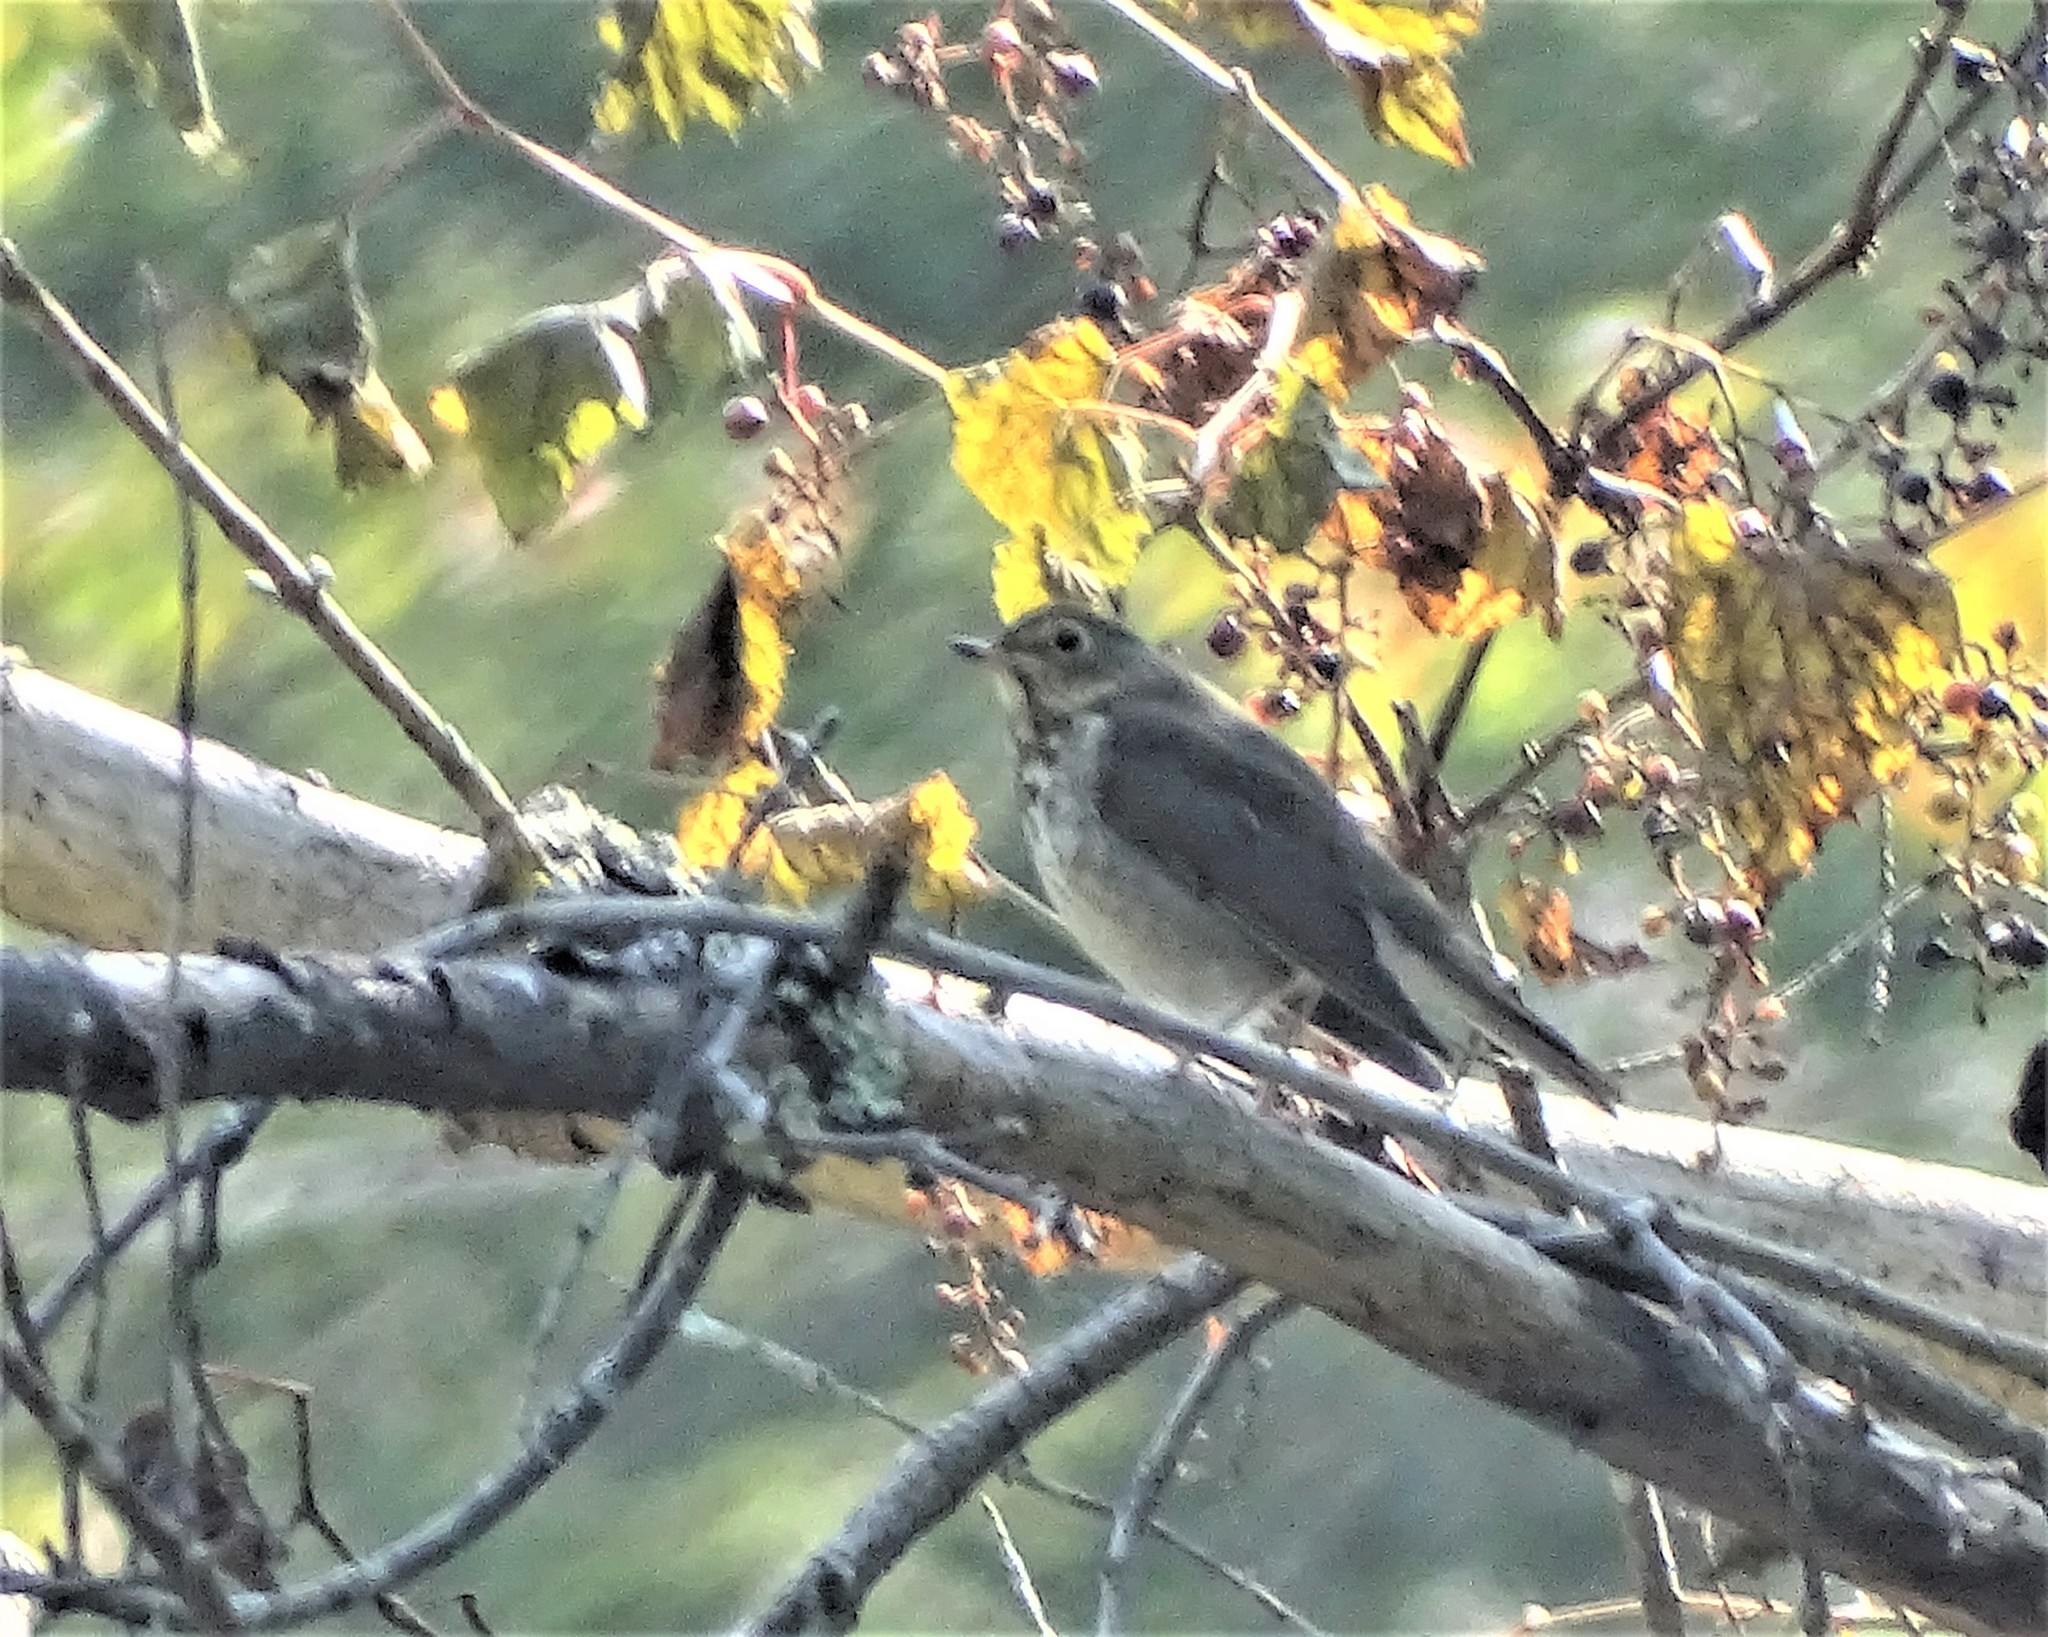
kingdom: Animalia
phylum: Chordata
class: Aves
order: Passeriformes
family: Turdidae
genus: Catharus
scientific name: Catharus ustulatus
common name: Swainson's thrush
